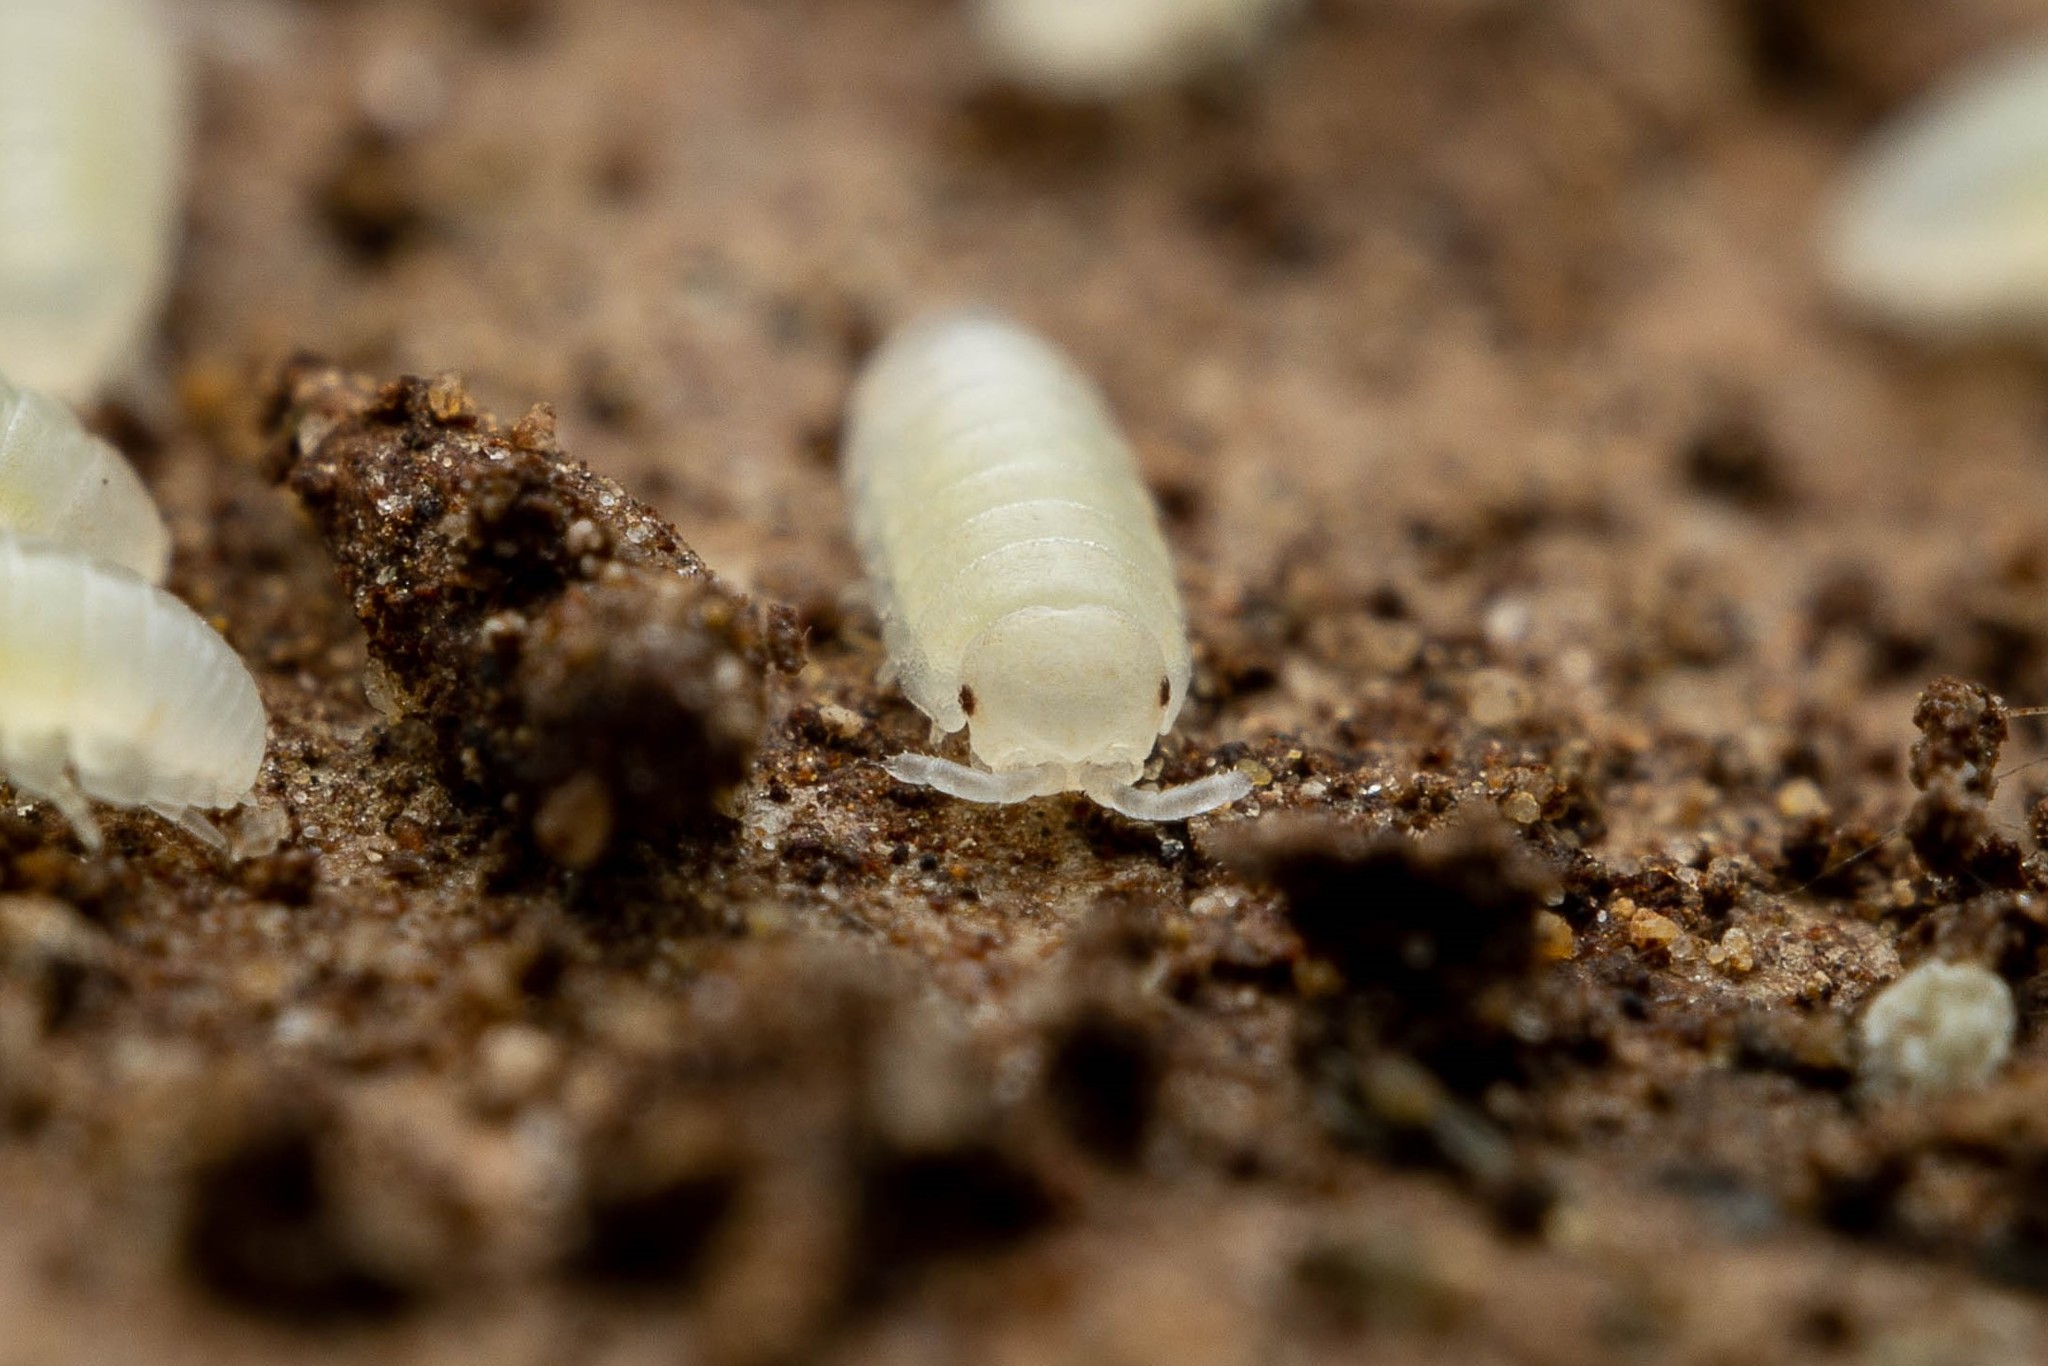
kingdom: Animalia
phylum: Arthropoda
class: Malacostraca
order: Isopoda
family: Armadillidiidae
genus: Armadillidium
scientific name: Armadillidium vulgare
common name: Common pill woodlouse
